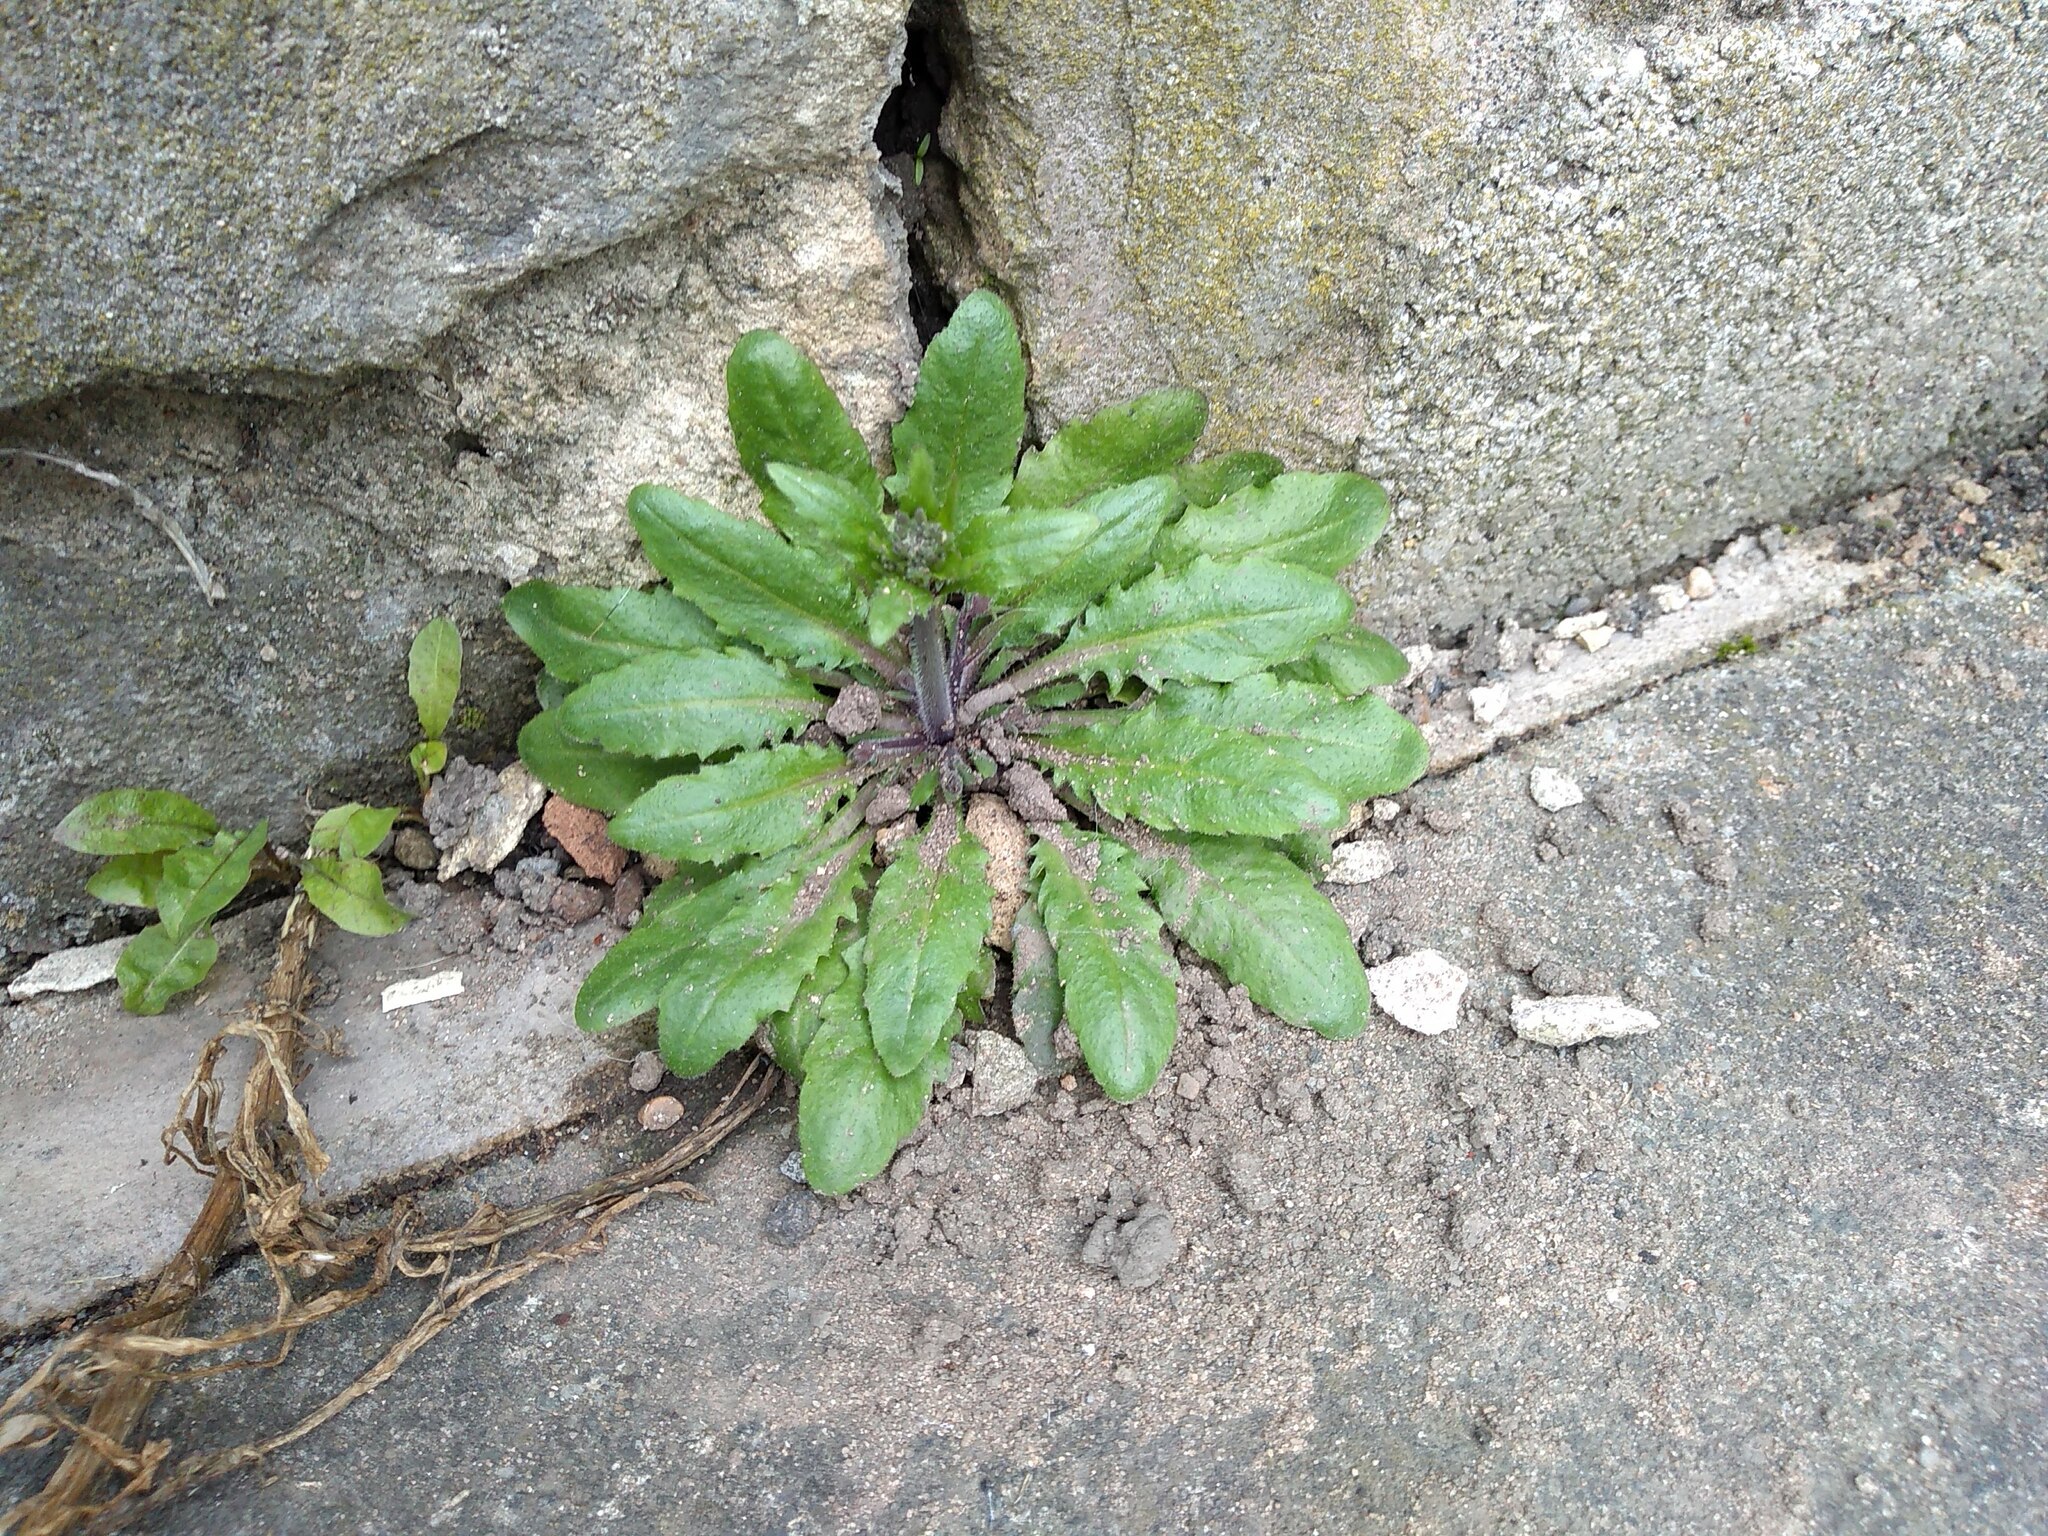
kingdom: Plantae
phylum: Tracheophyta
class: Magnoliopsida
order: Brassicales
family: Brassicaceae
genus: Arabidopsis
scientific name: Arabidopsis thaliana
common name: Thale cress
